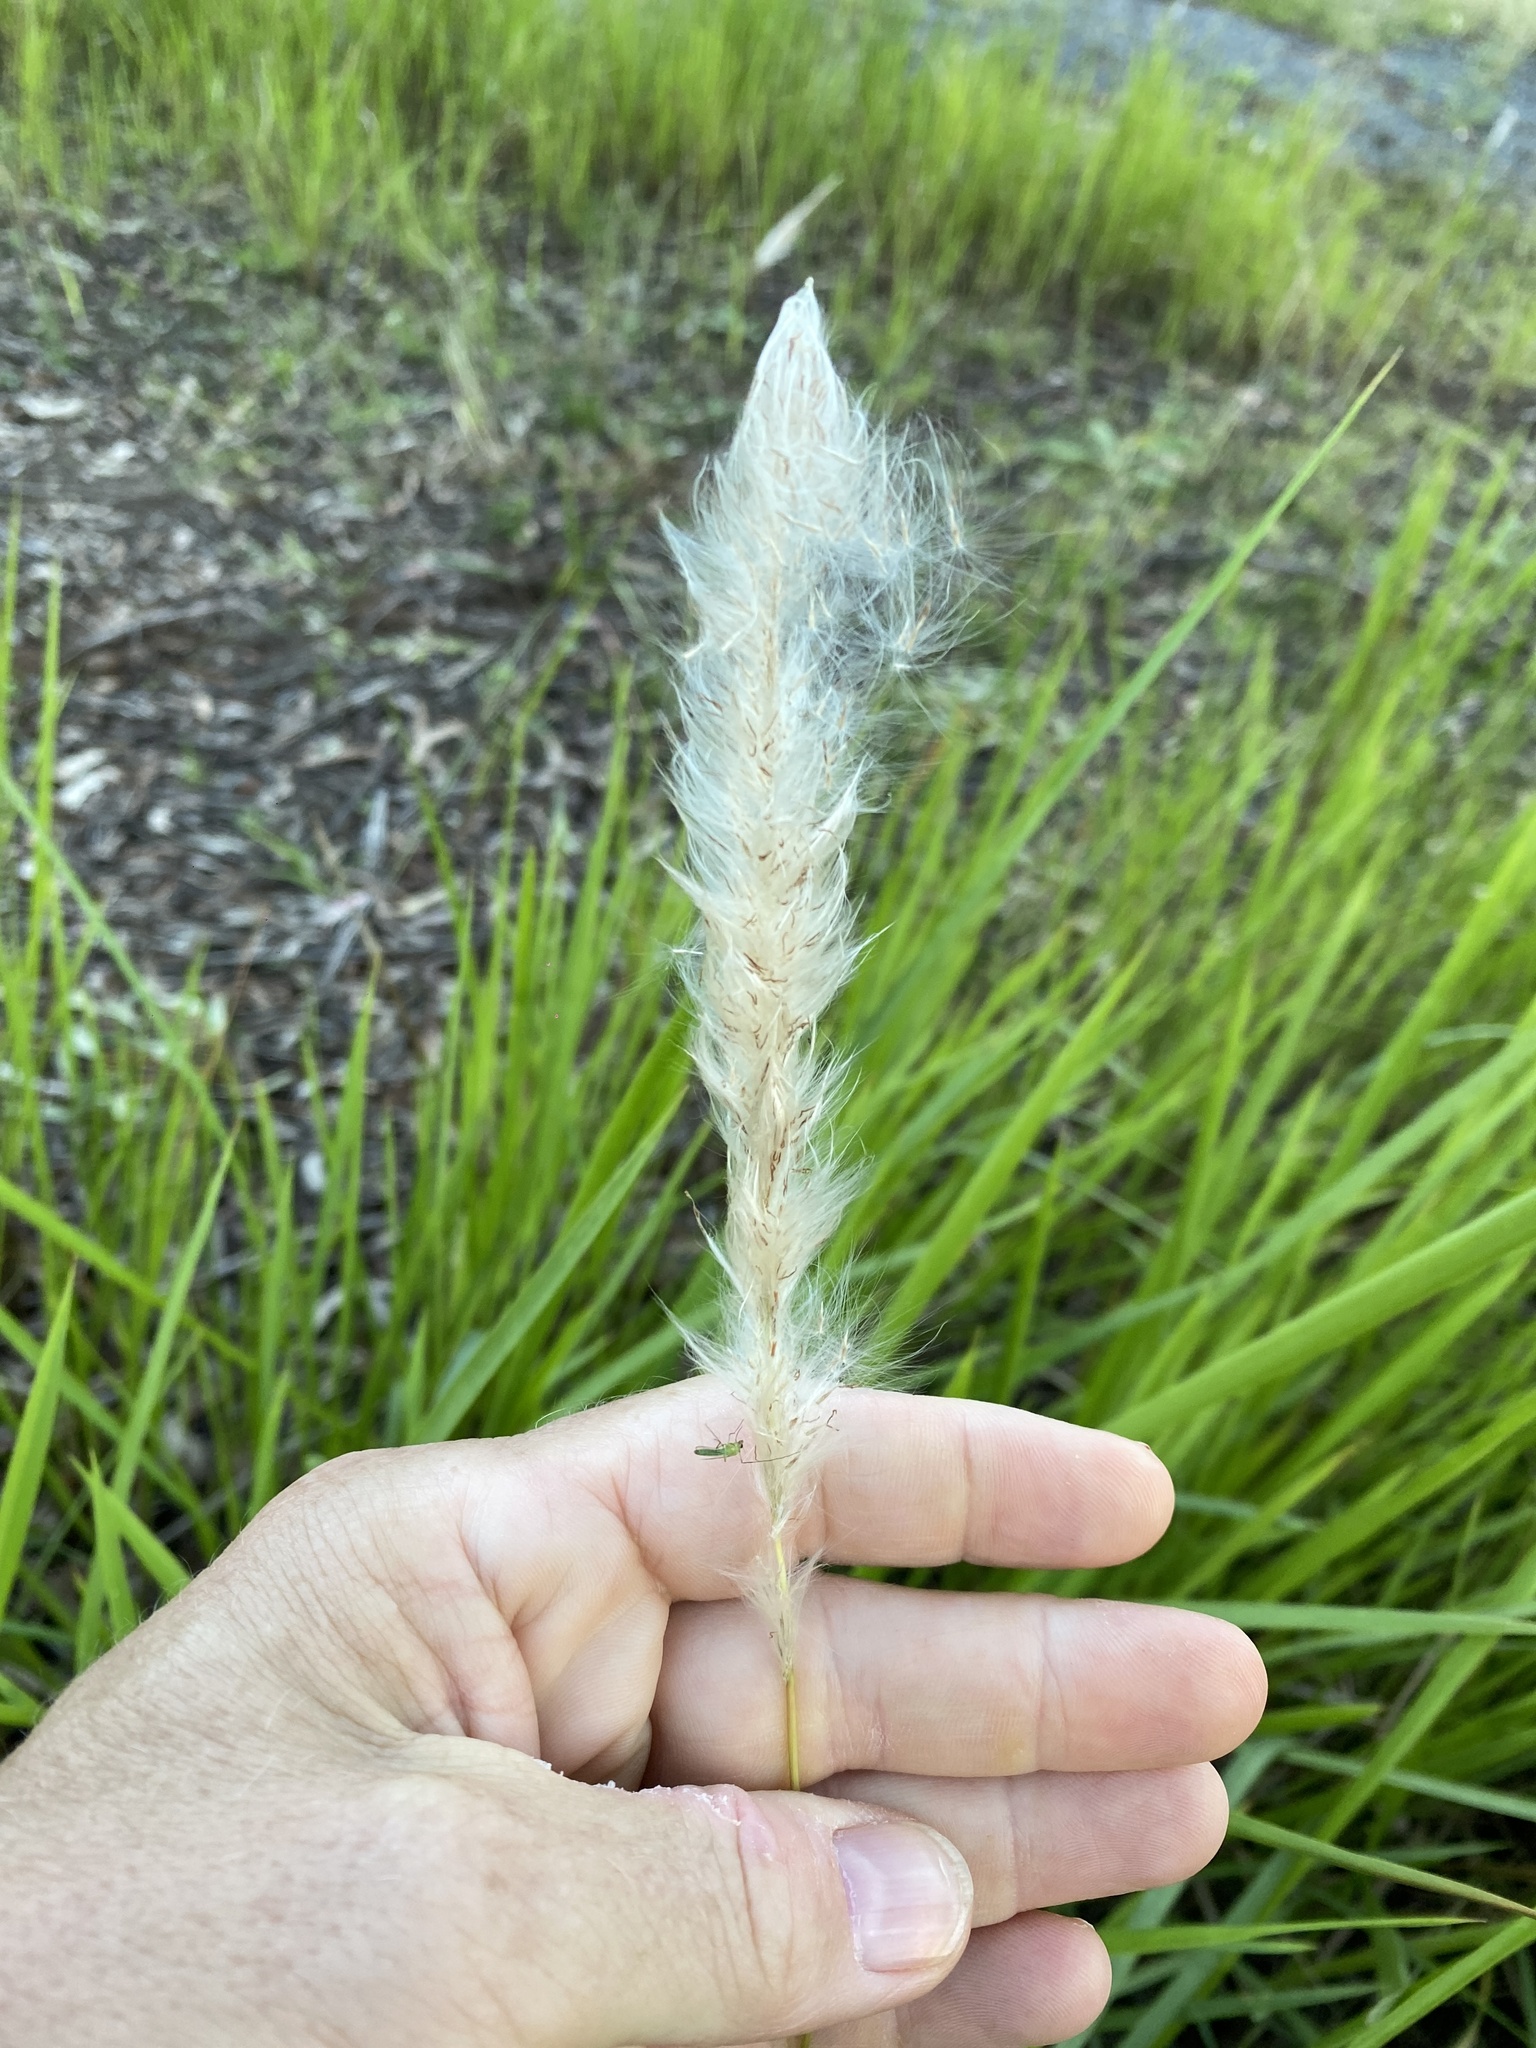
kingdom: Plantae
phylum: Tracheophyta
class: Liliopsida
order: Poales
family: Poaceae
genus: Imperata
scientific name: Imperata cylindrica
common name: Cogongrass
